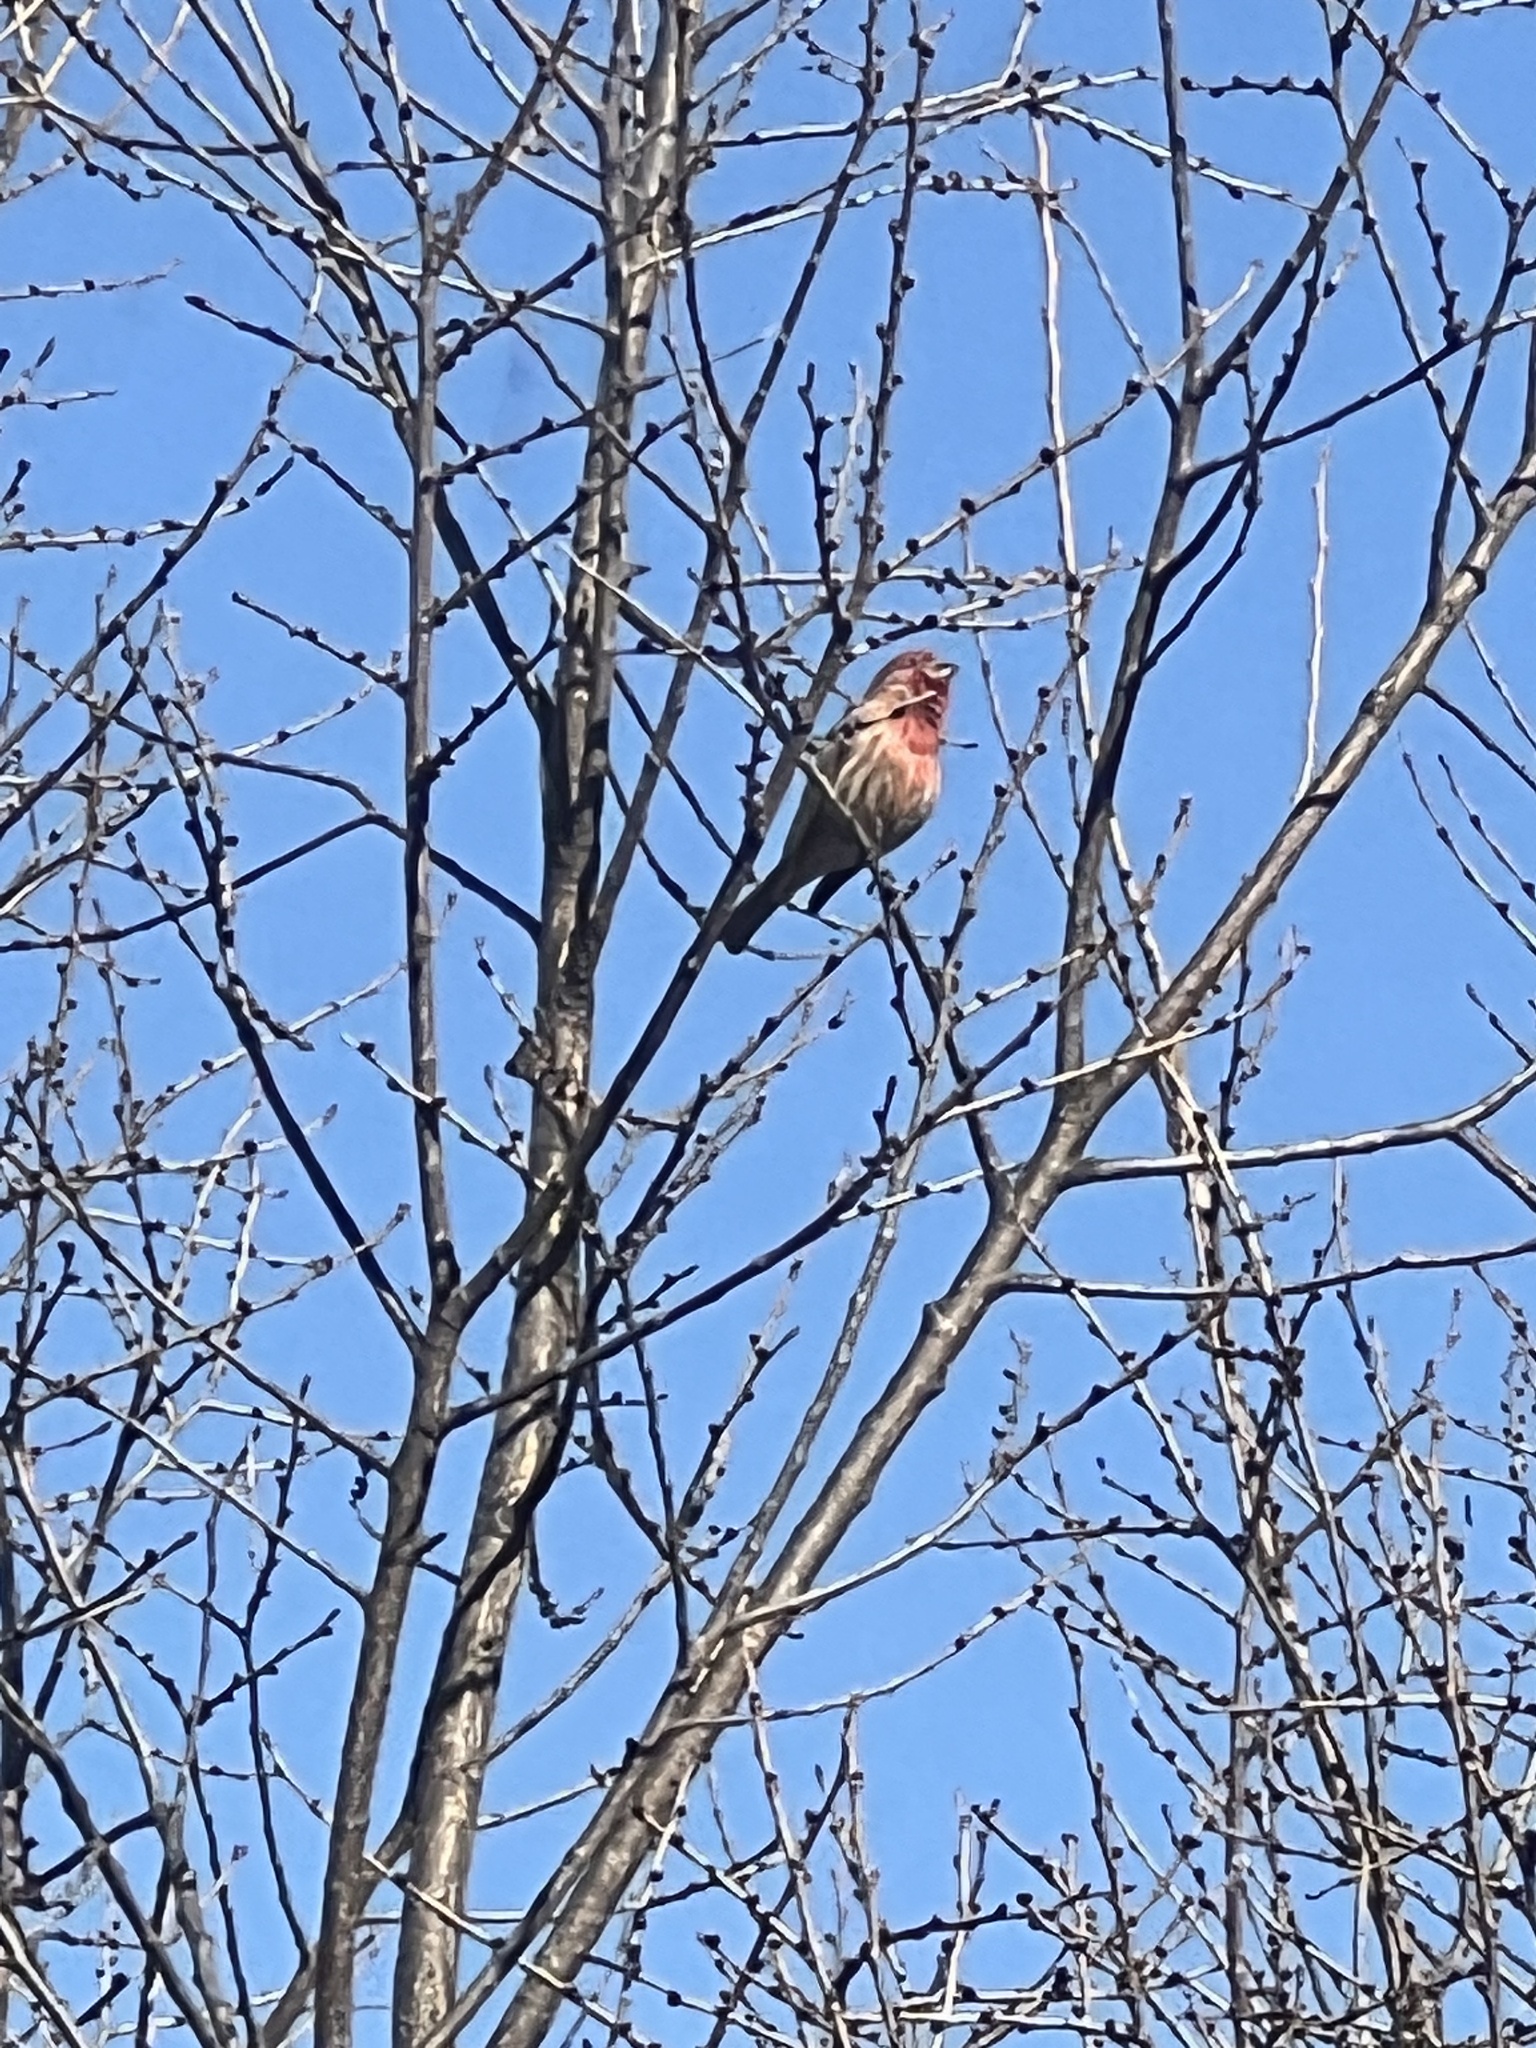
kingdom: Animalia
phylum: Chordata
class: Aves
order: Passeriformes
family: Fringillidae
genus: Haemorhous
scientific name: Haemorhous mexicanus
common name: House finch
